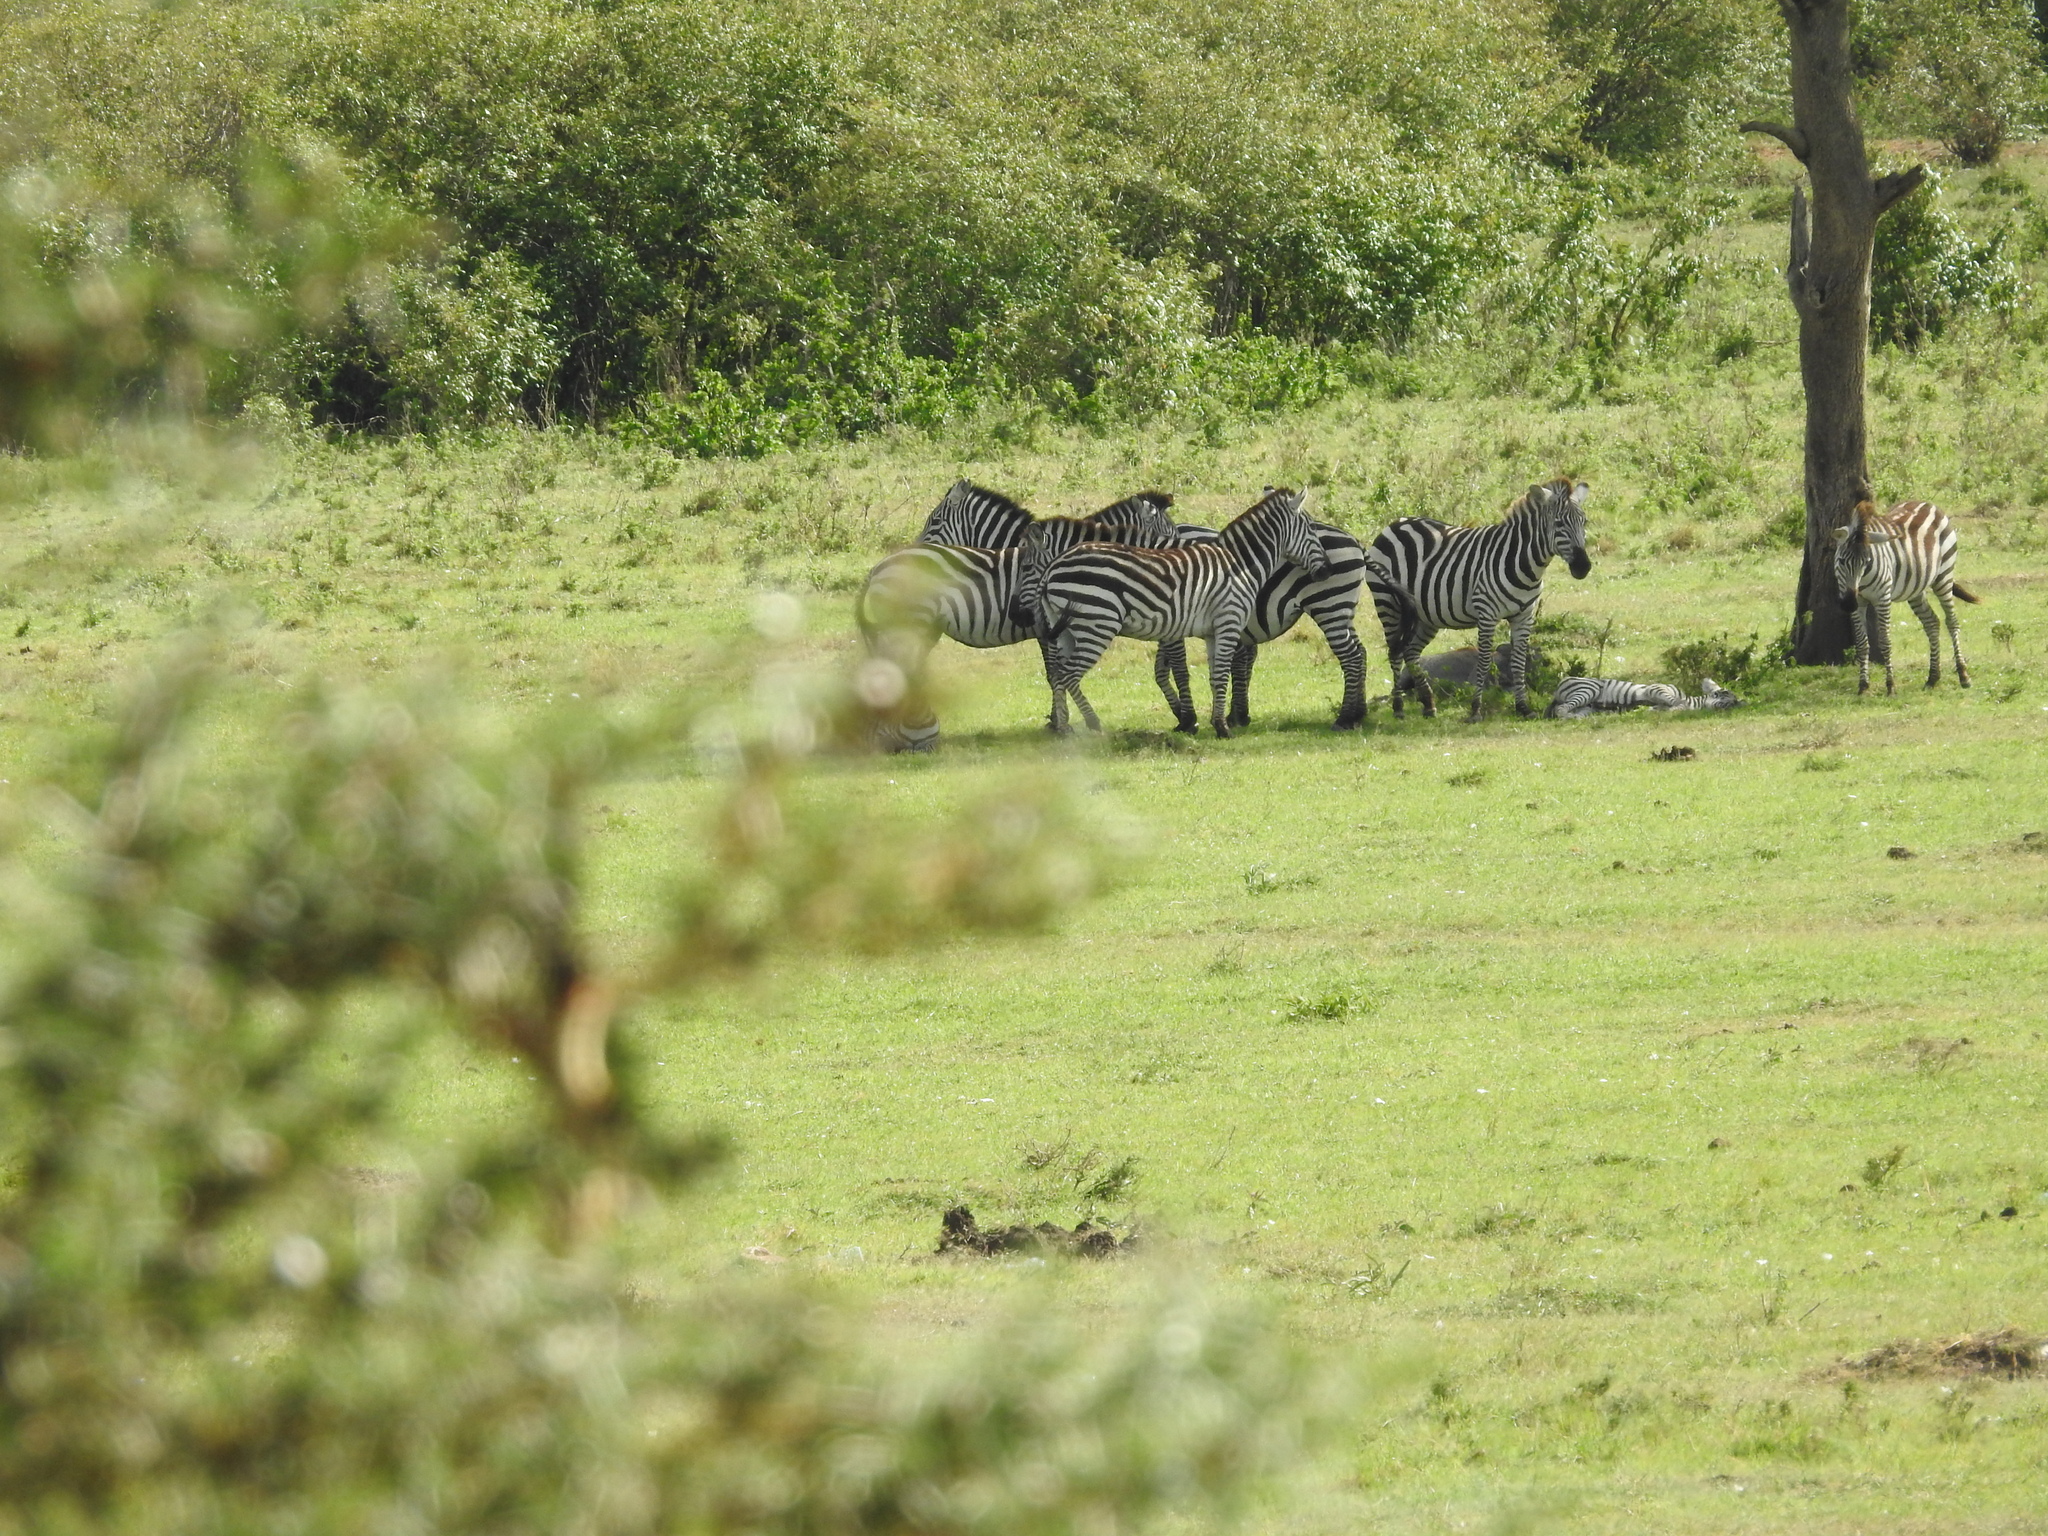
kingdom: Animalia
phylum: Chordata
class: Mammalia
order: Perissodactyla
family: Equidae
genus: Equus
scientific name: Equus quagga
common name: Plains zebra
